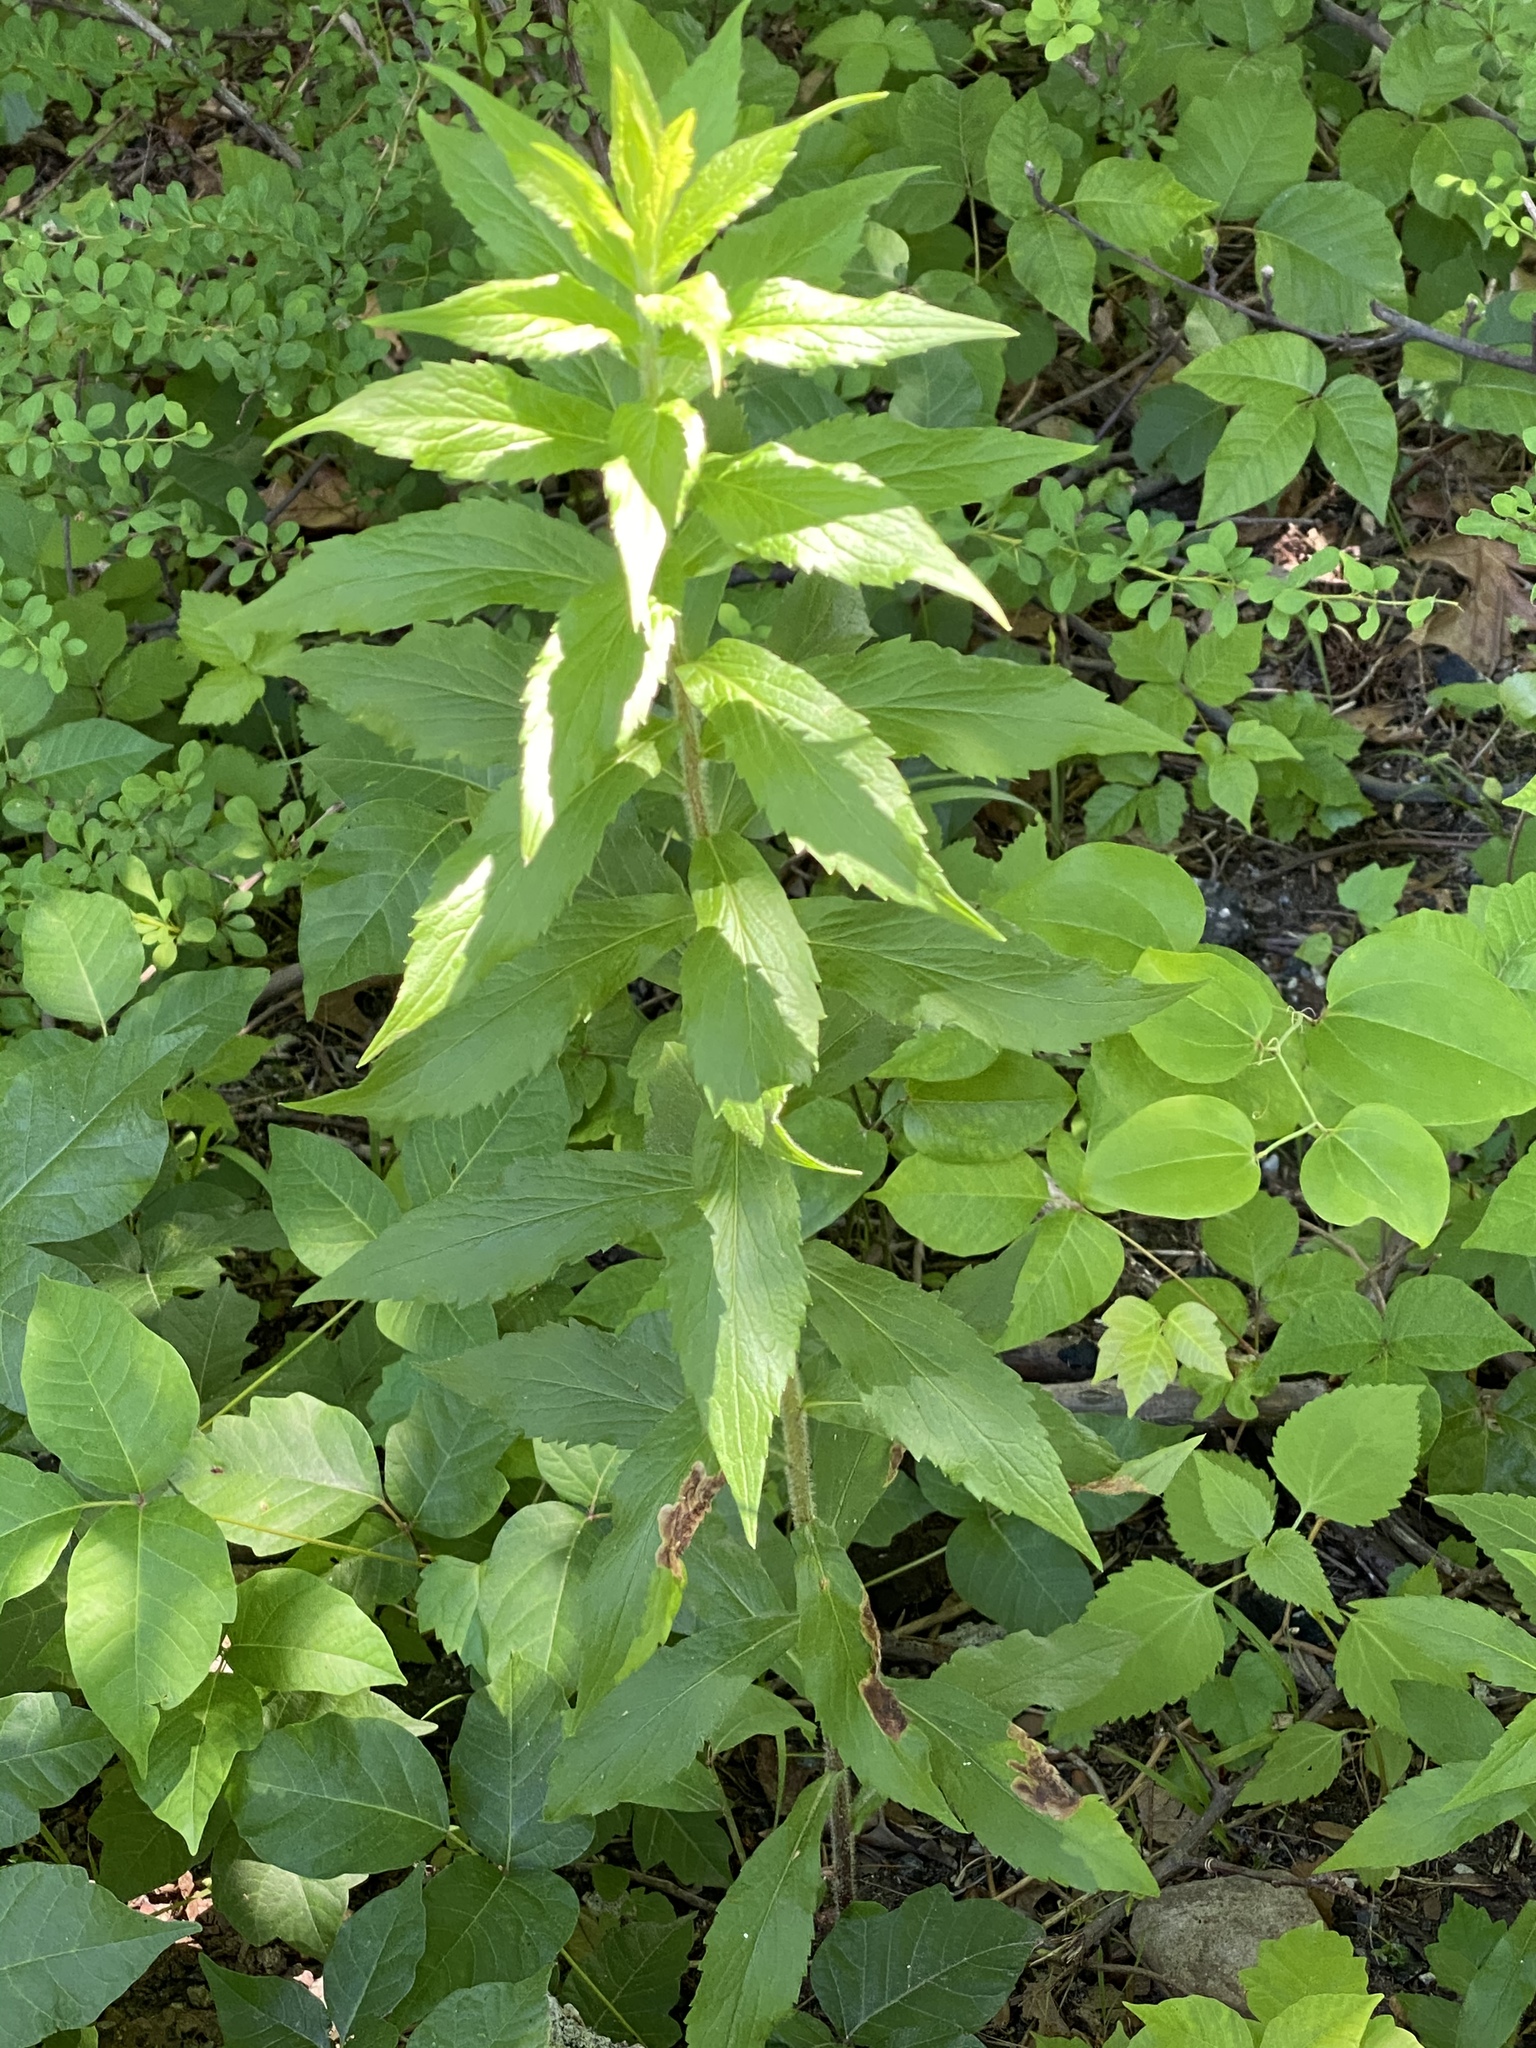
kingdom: Plantae
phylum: Tracheophyta
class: Magnoliopsida
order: Asterales
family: Asteraceae
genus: Solidago
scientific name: Solidago rugosa
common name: Rough-stemmed goldenrod
